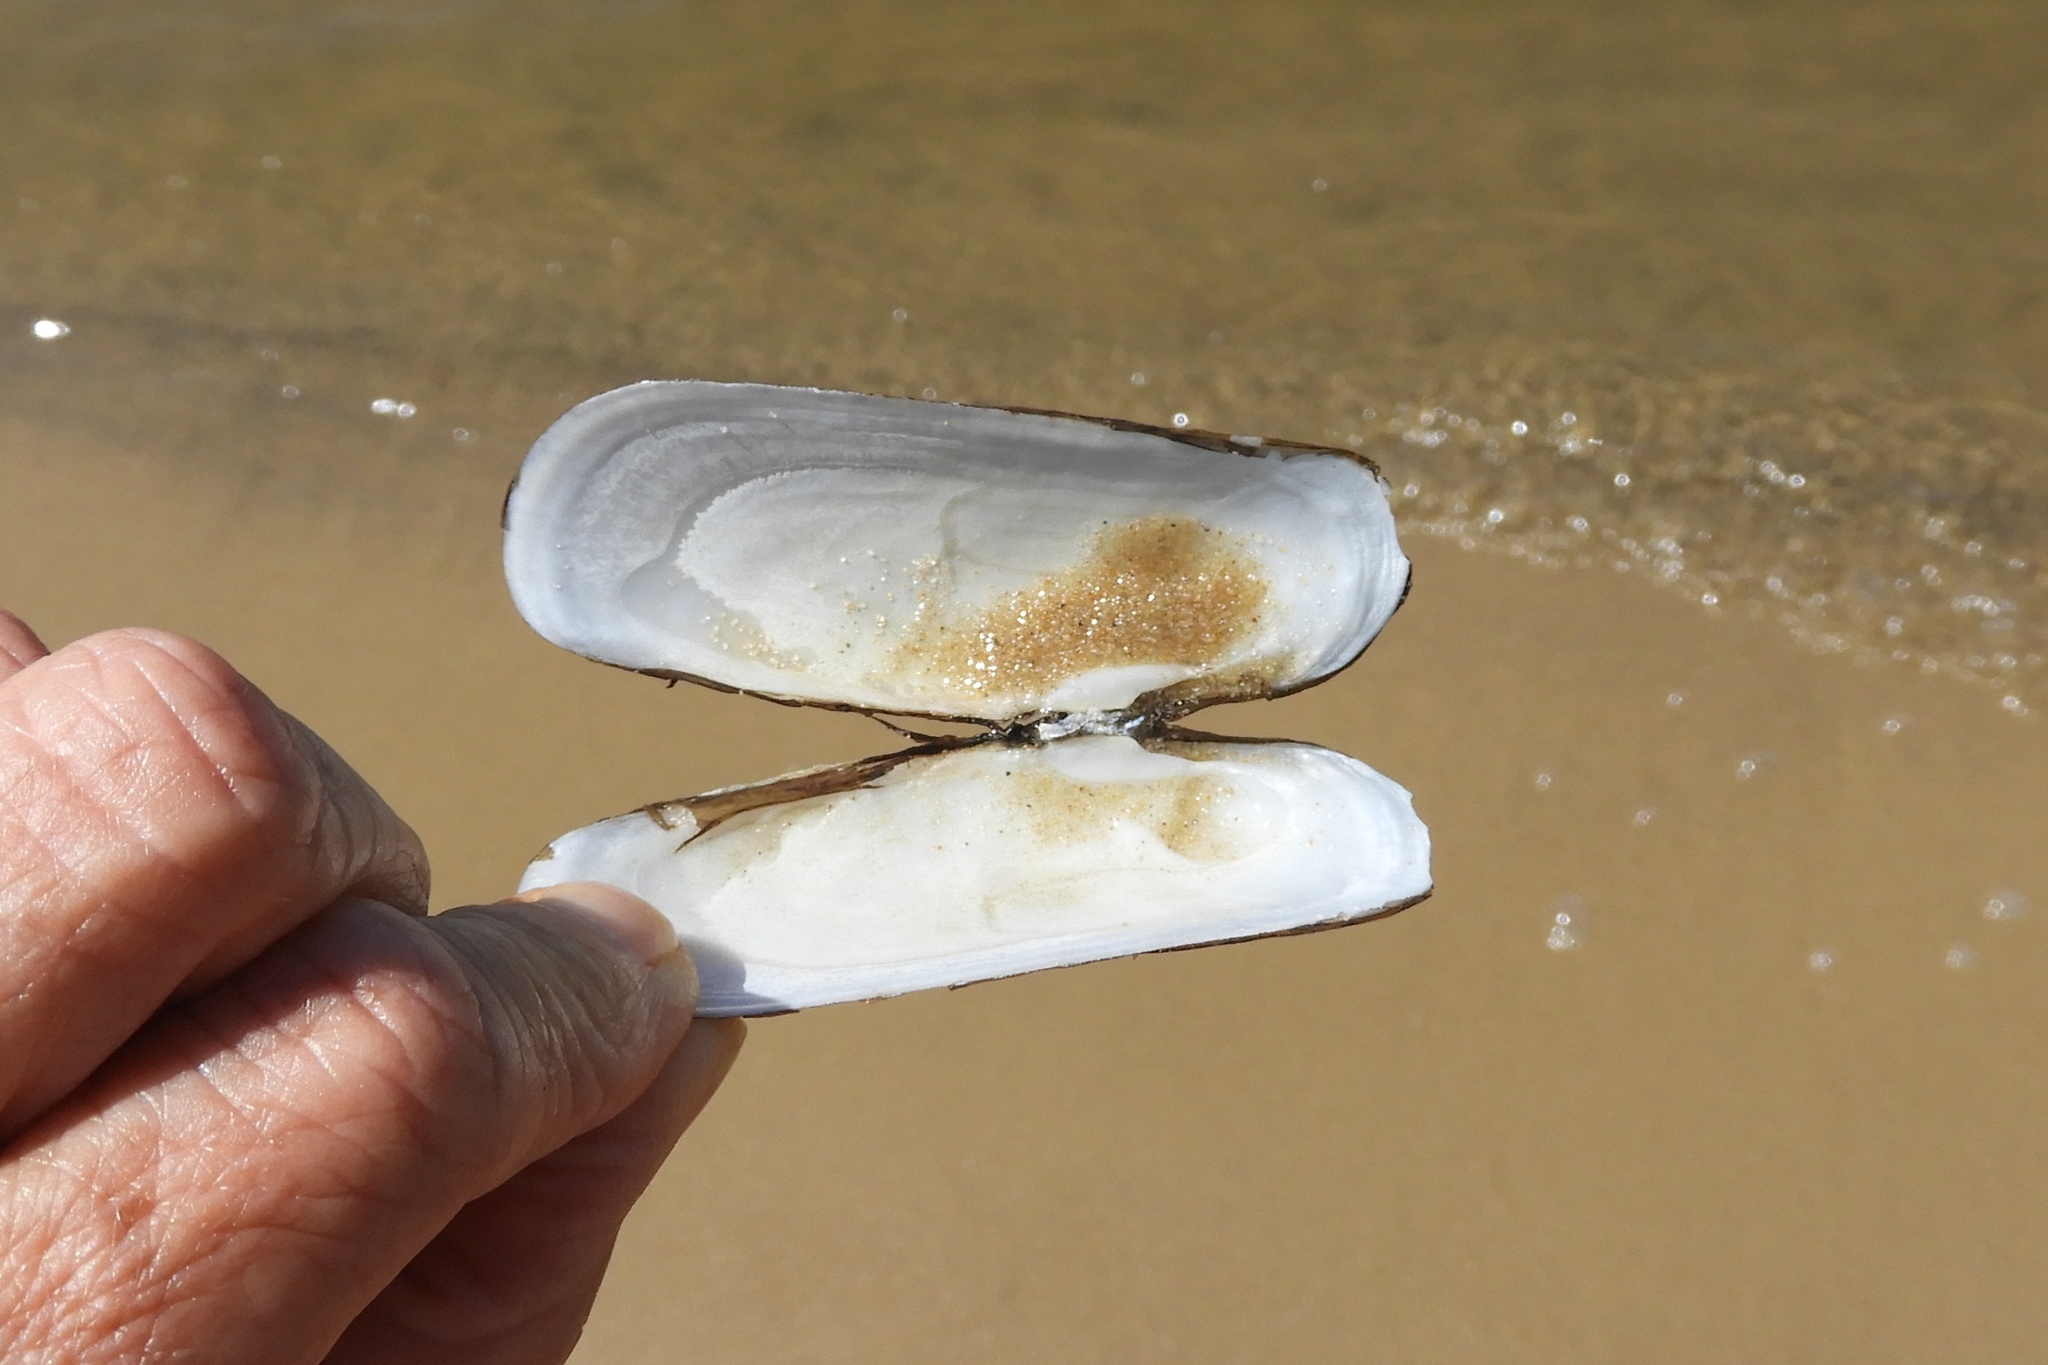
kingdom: Animalia
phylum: Mollusca
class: Bivalvia
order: Cardiida
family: Solecurtidae
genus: Tagelus
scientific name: Tagelus plebeius
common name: Stout tagelus
